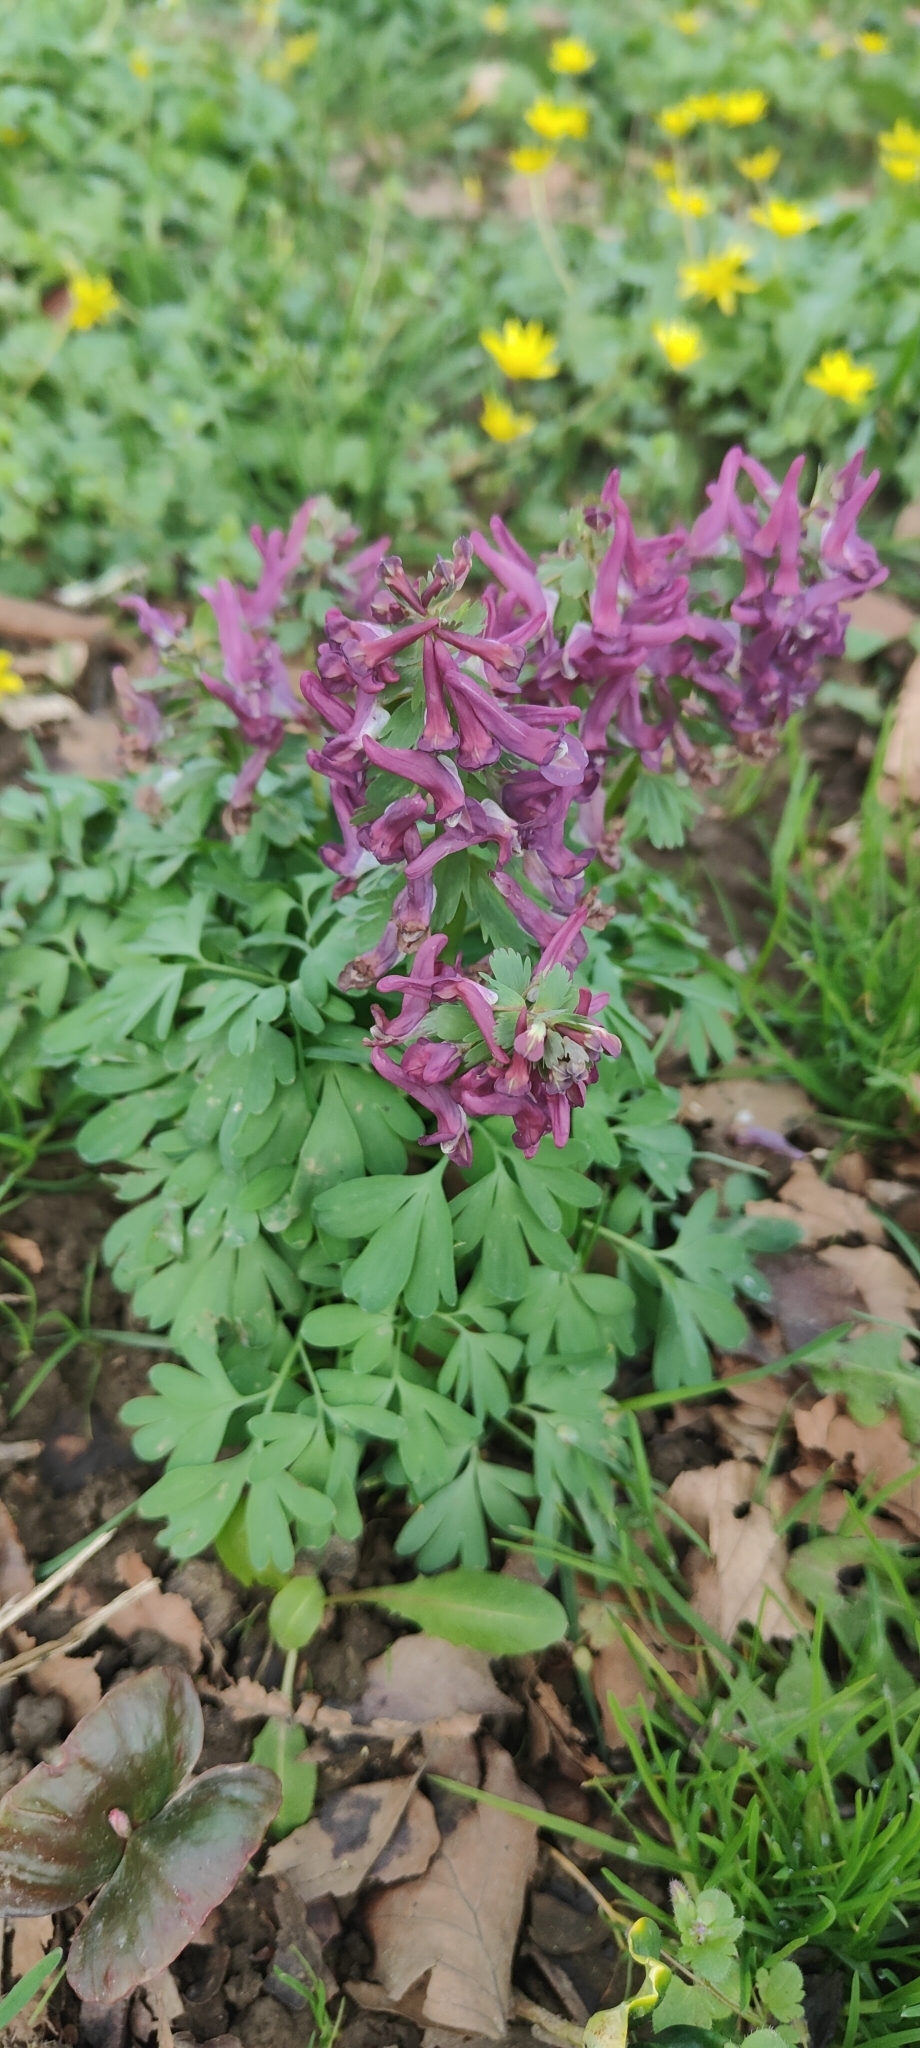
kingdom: Plantae
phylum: Tracheophyta
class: Magnoliopsida
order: Ranunculales
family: Papaveraceae
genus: Corydalis
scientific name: Corydalis solida
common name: Bird-in-a-bush
